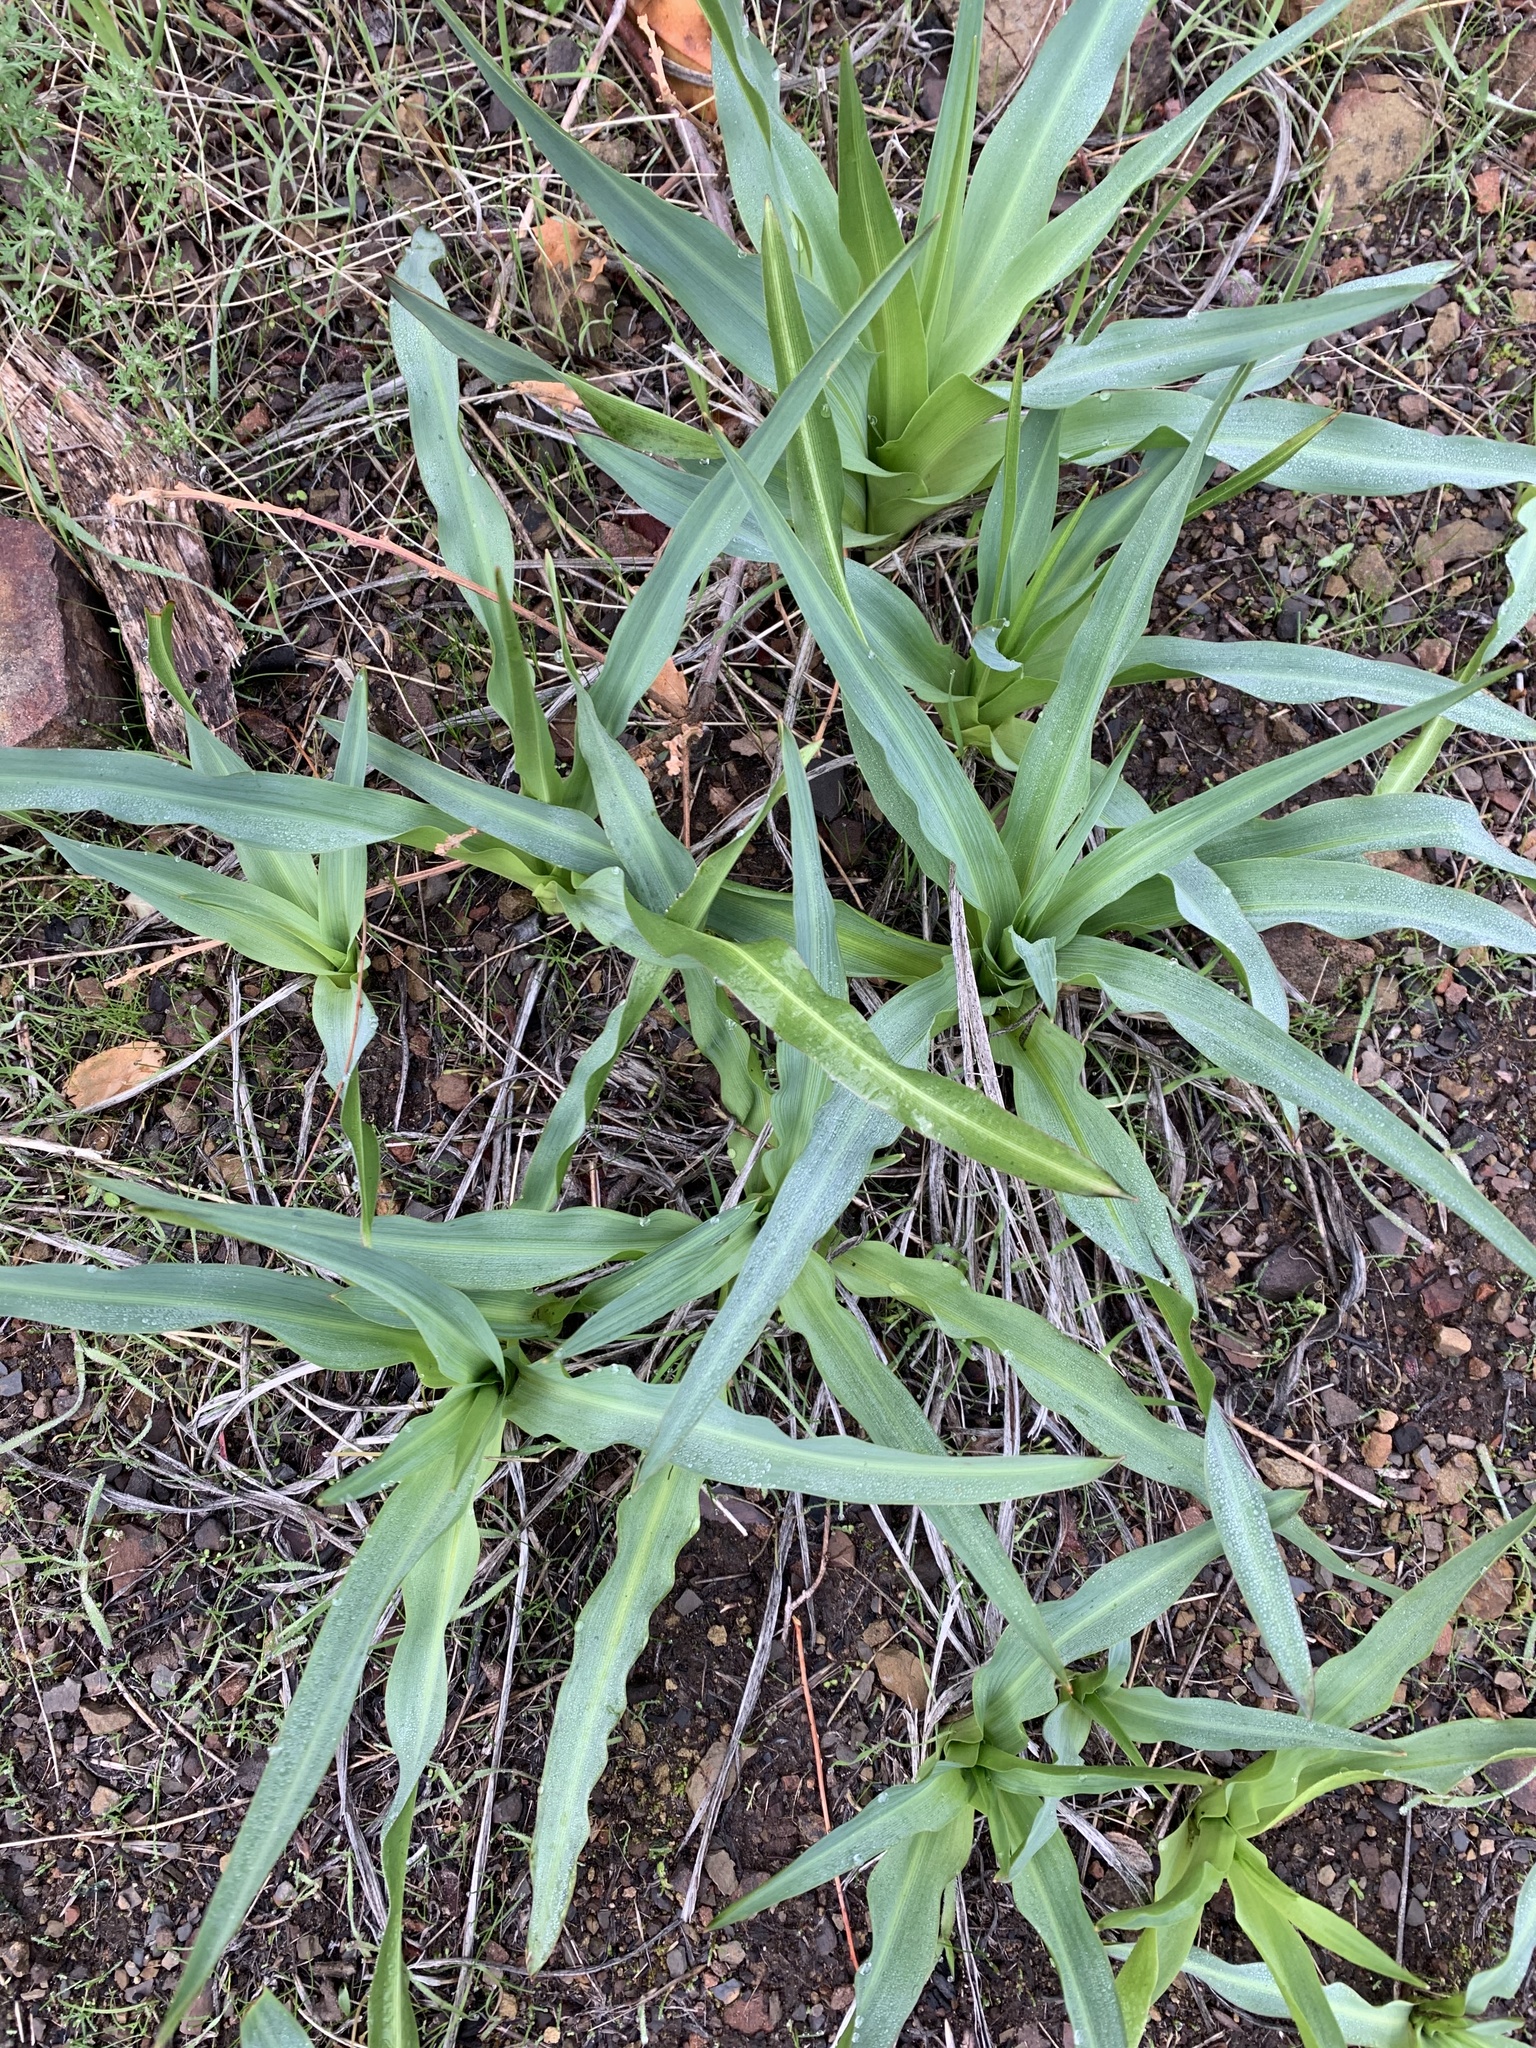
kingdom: Plantae
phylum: Tracheophyta
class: Liliopsida
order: Asparagales
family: Asparagaceae
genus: Chlorogalum
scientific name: Chlorogalum pomeridianum
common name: Amole
